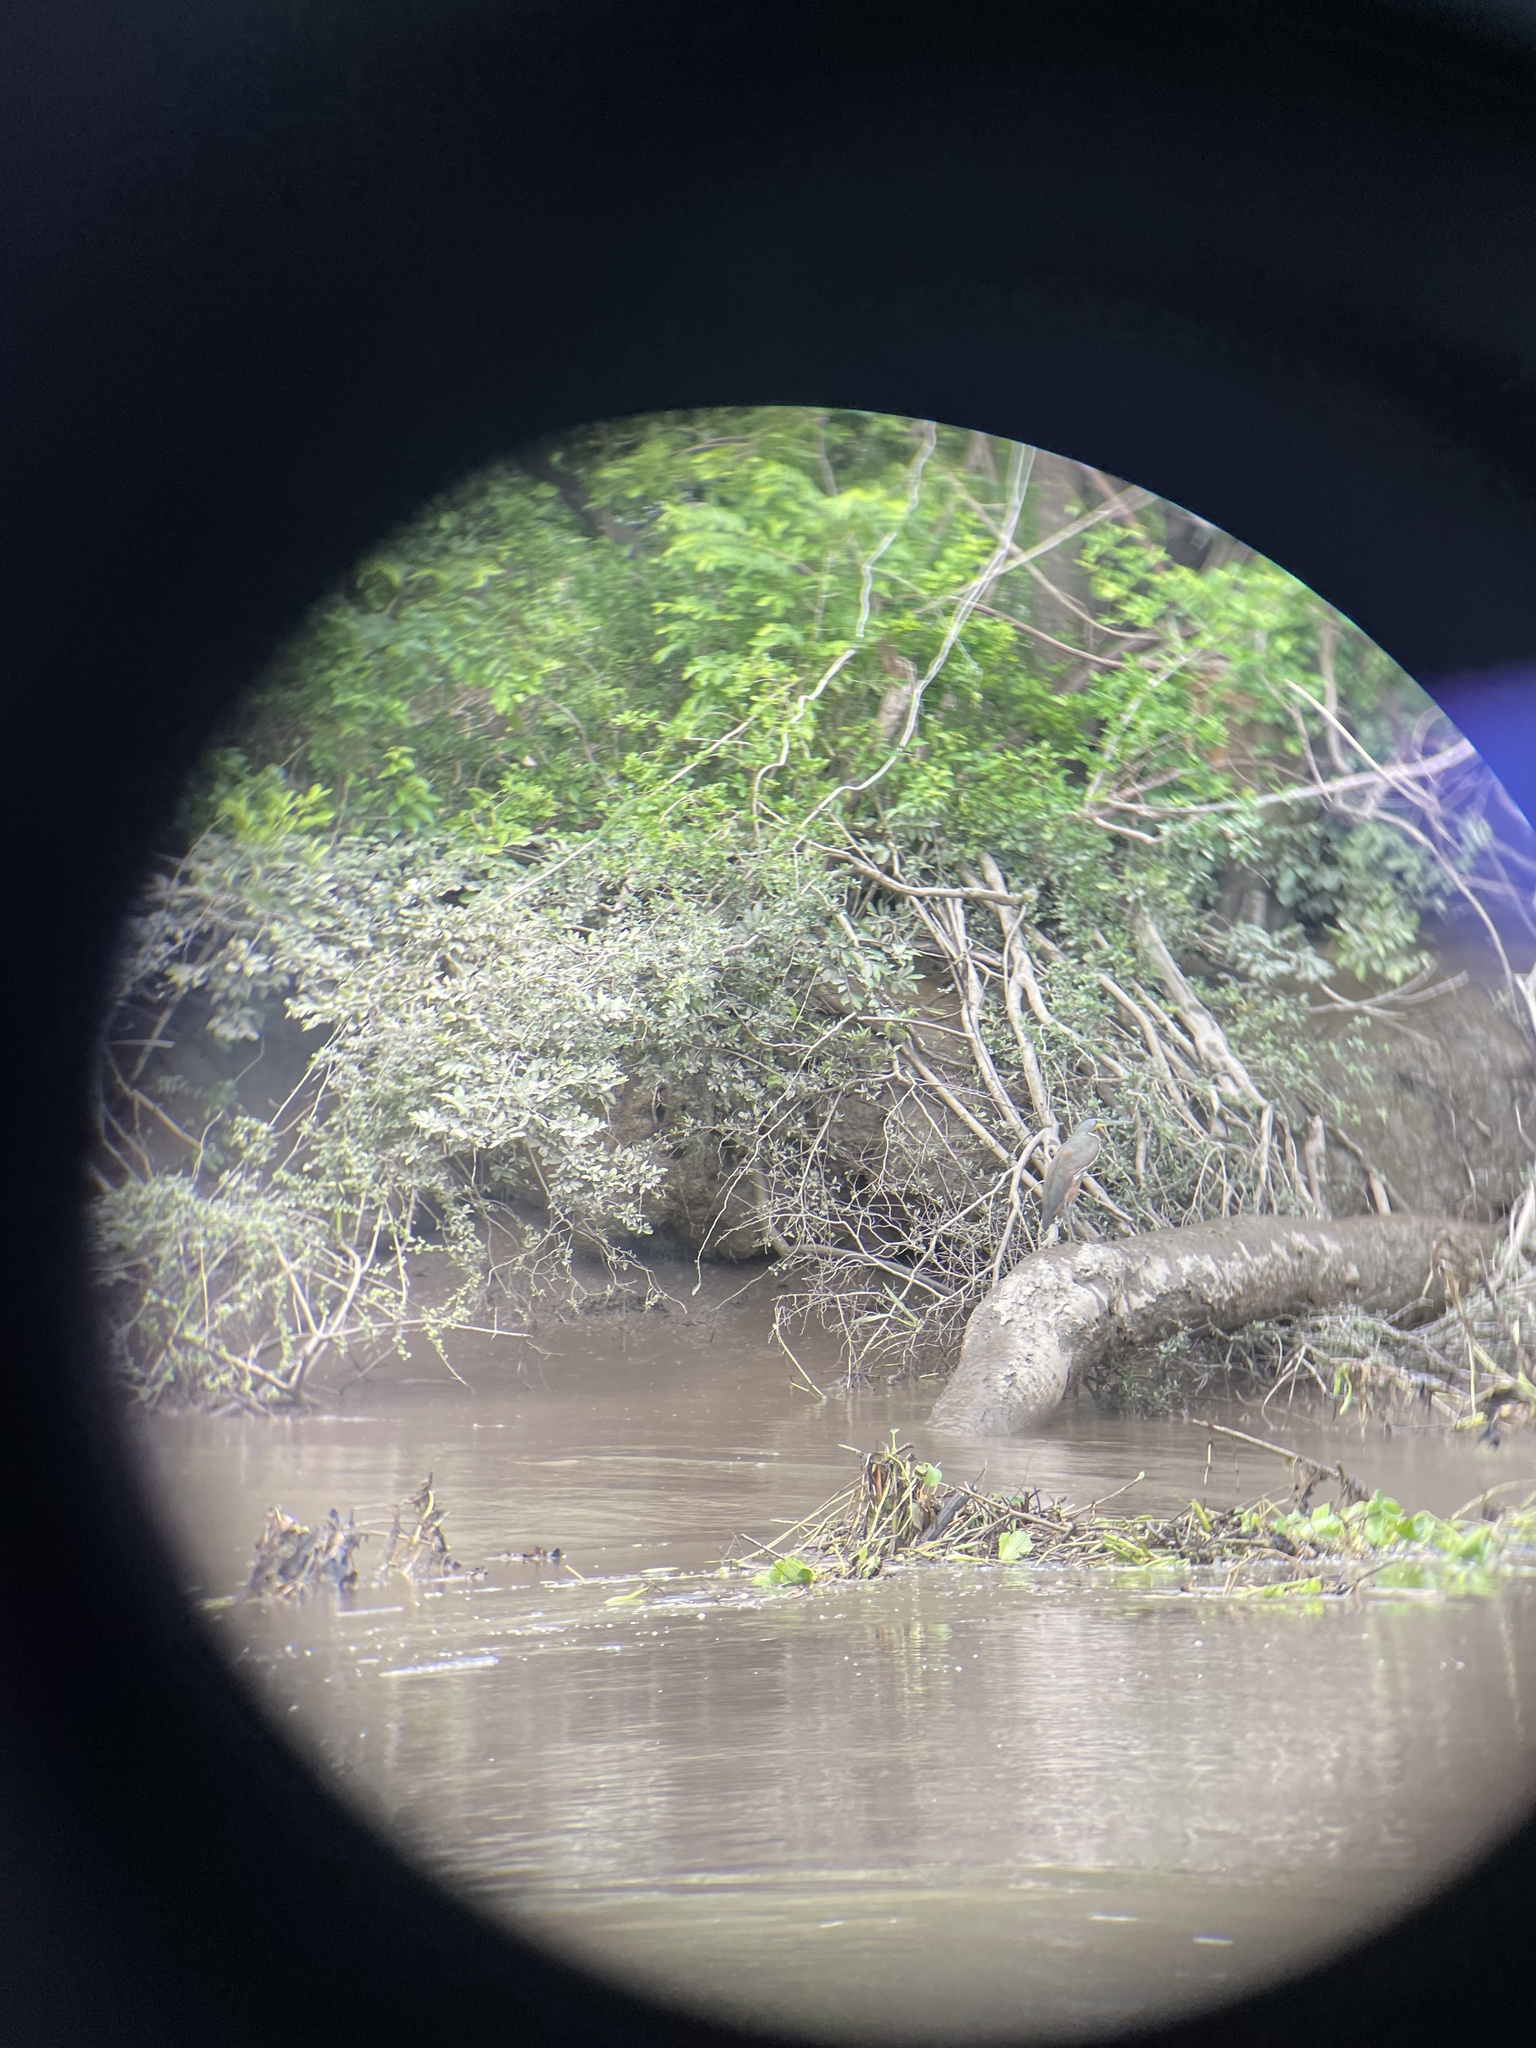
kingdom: Animalia
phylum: Chordata
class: Aves
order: Pelecaniformes
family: Ardeidae
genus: Tigrisoma
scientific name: Tigrisoma mexicanum
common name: Bare-throated tiger-heron
